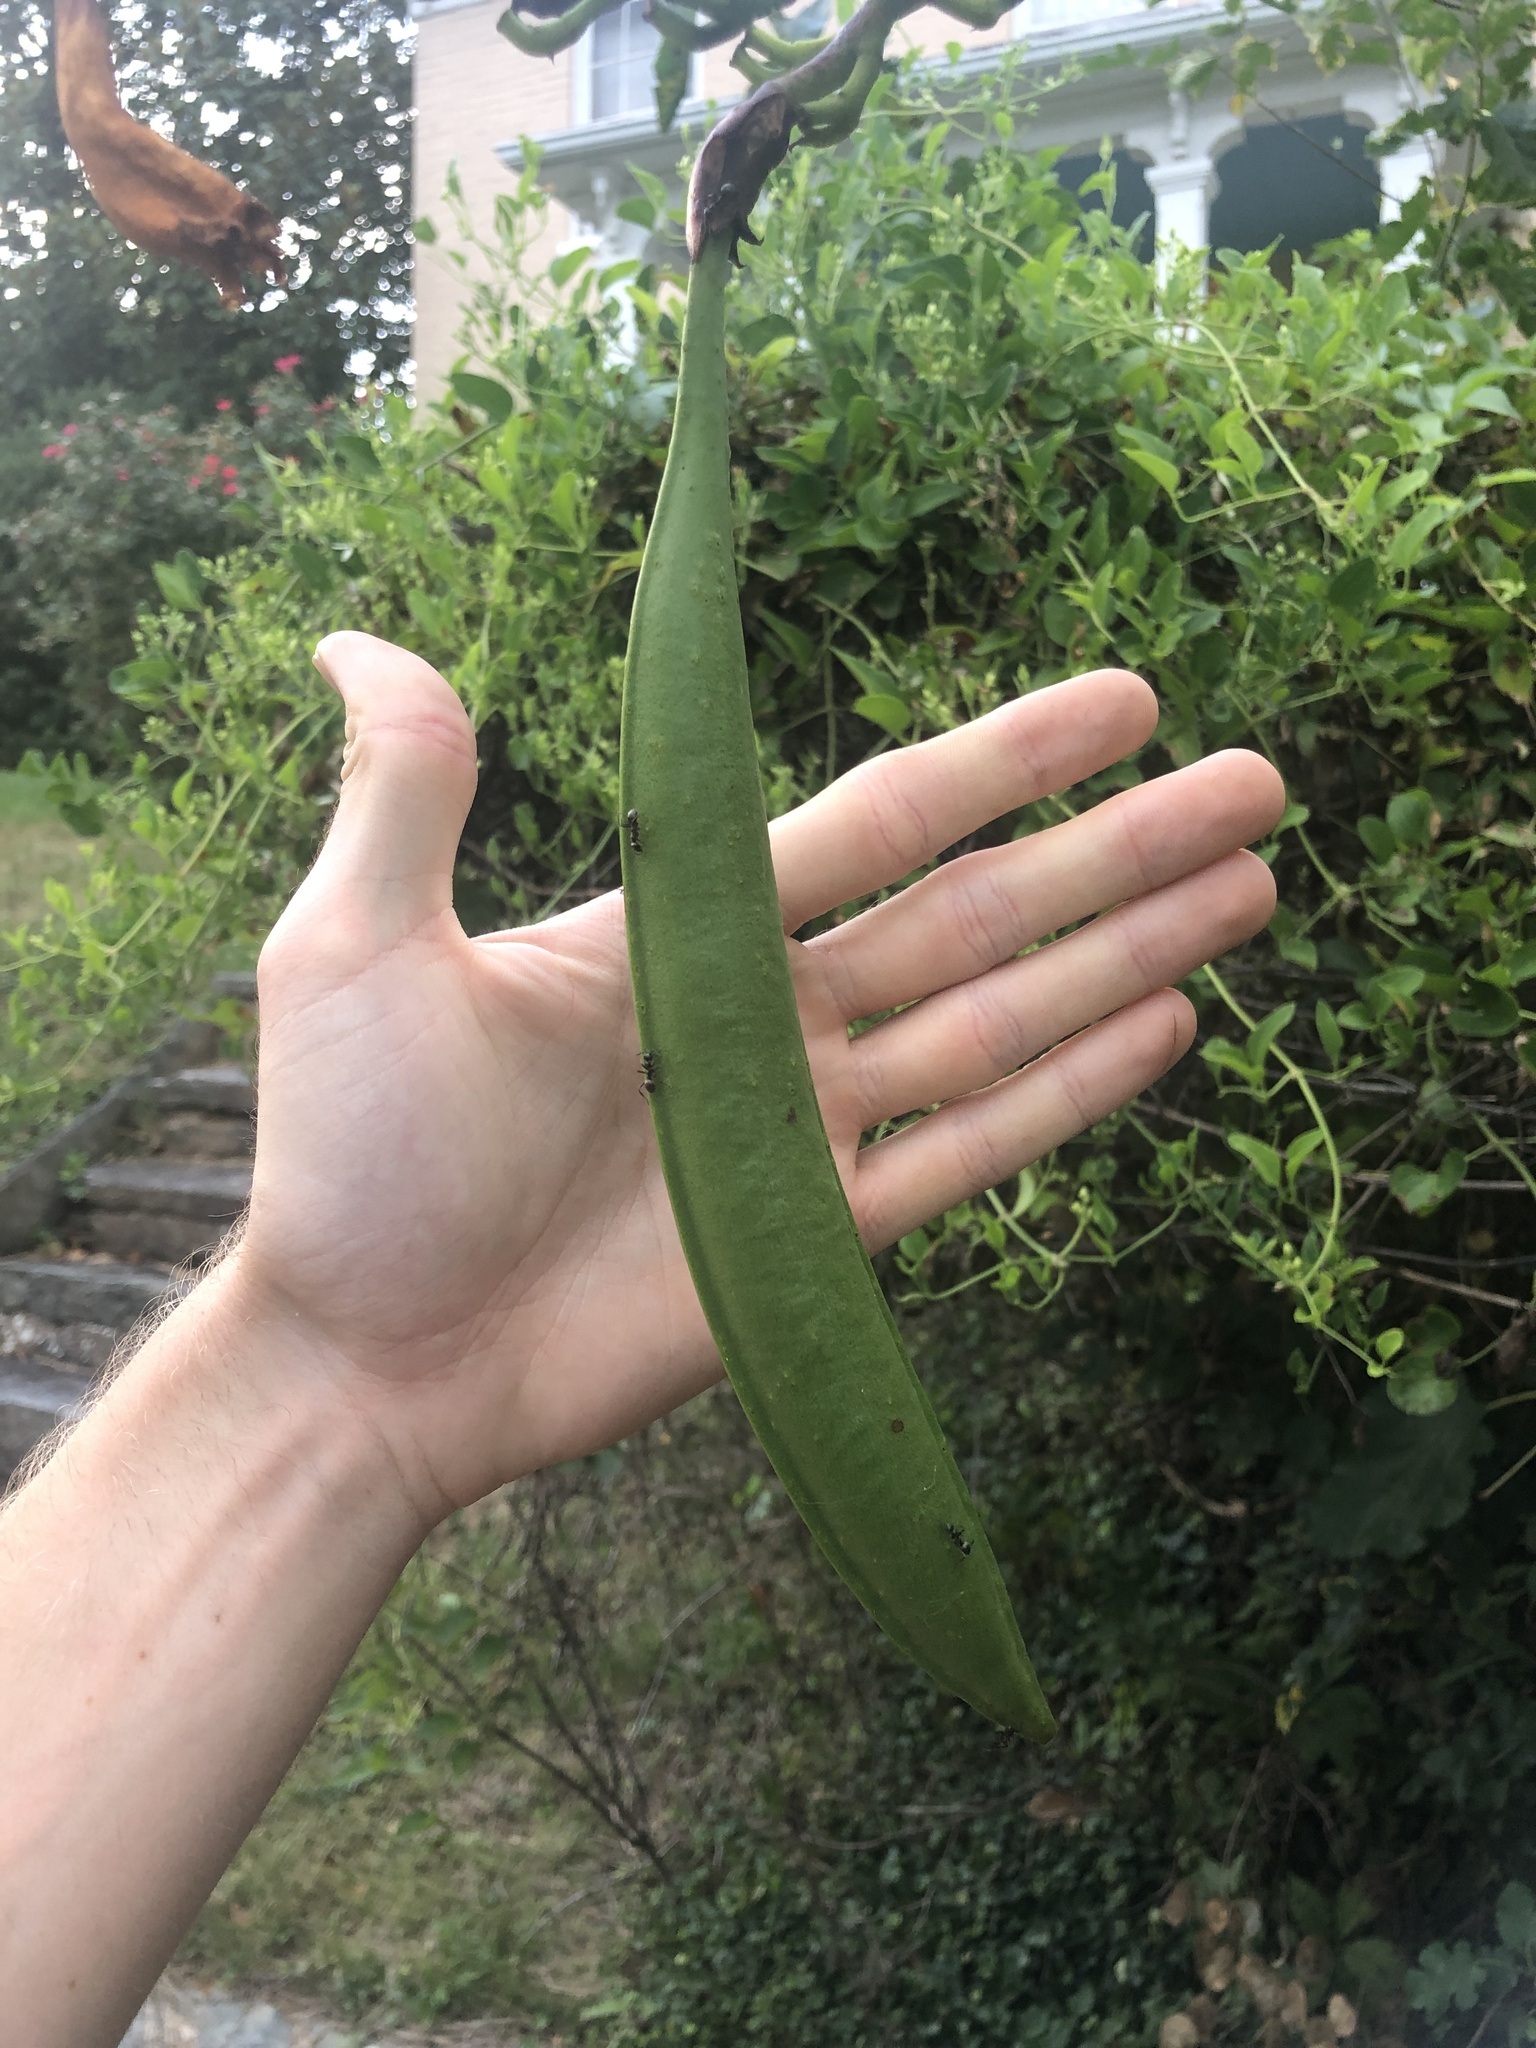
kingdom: Plantae
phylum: Tracheophyta
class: Magnoliopsida
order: Lamiales
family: Bignoniaceae
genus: Campsis
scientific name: Campsis radicans
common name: Trumpet-creeper
